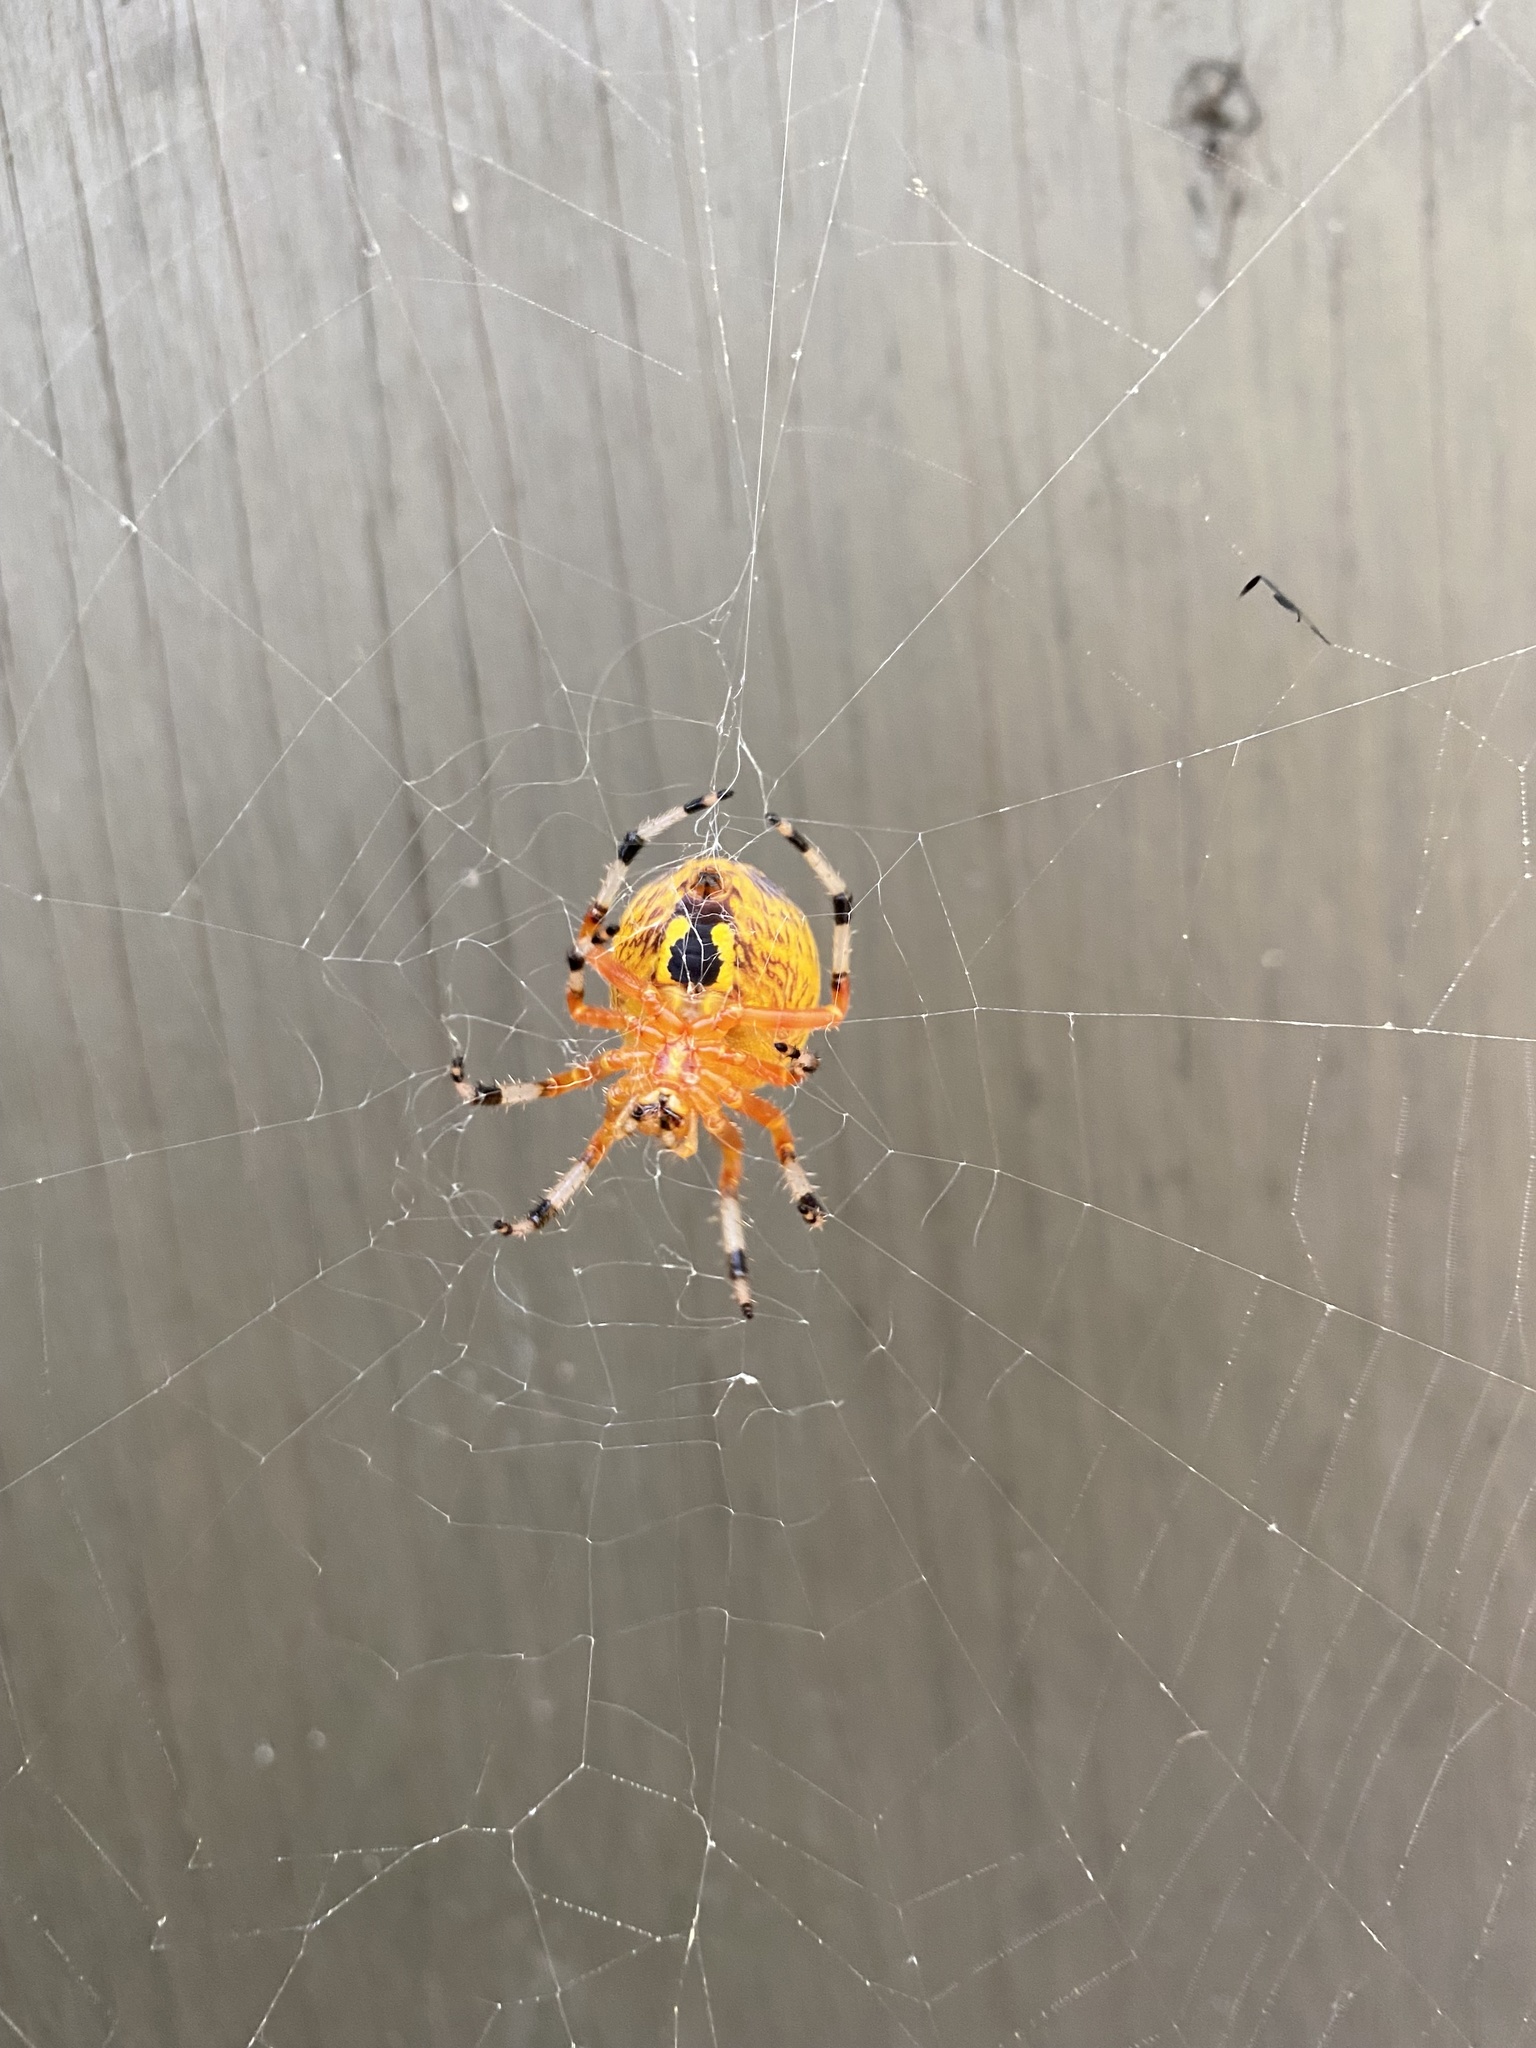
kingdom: Animalia
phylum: Arthropoda
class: Arachnida
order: Araneae
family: Araneidae
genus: Araneus
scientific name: Araneus marmoreus
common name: Marbled orbweaver
